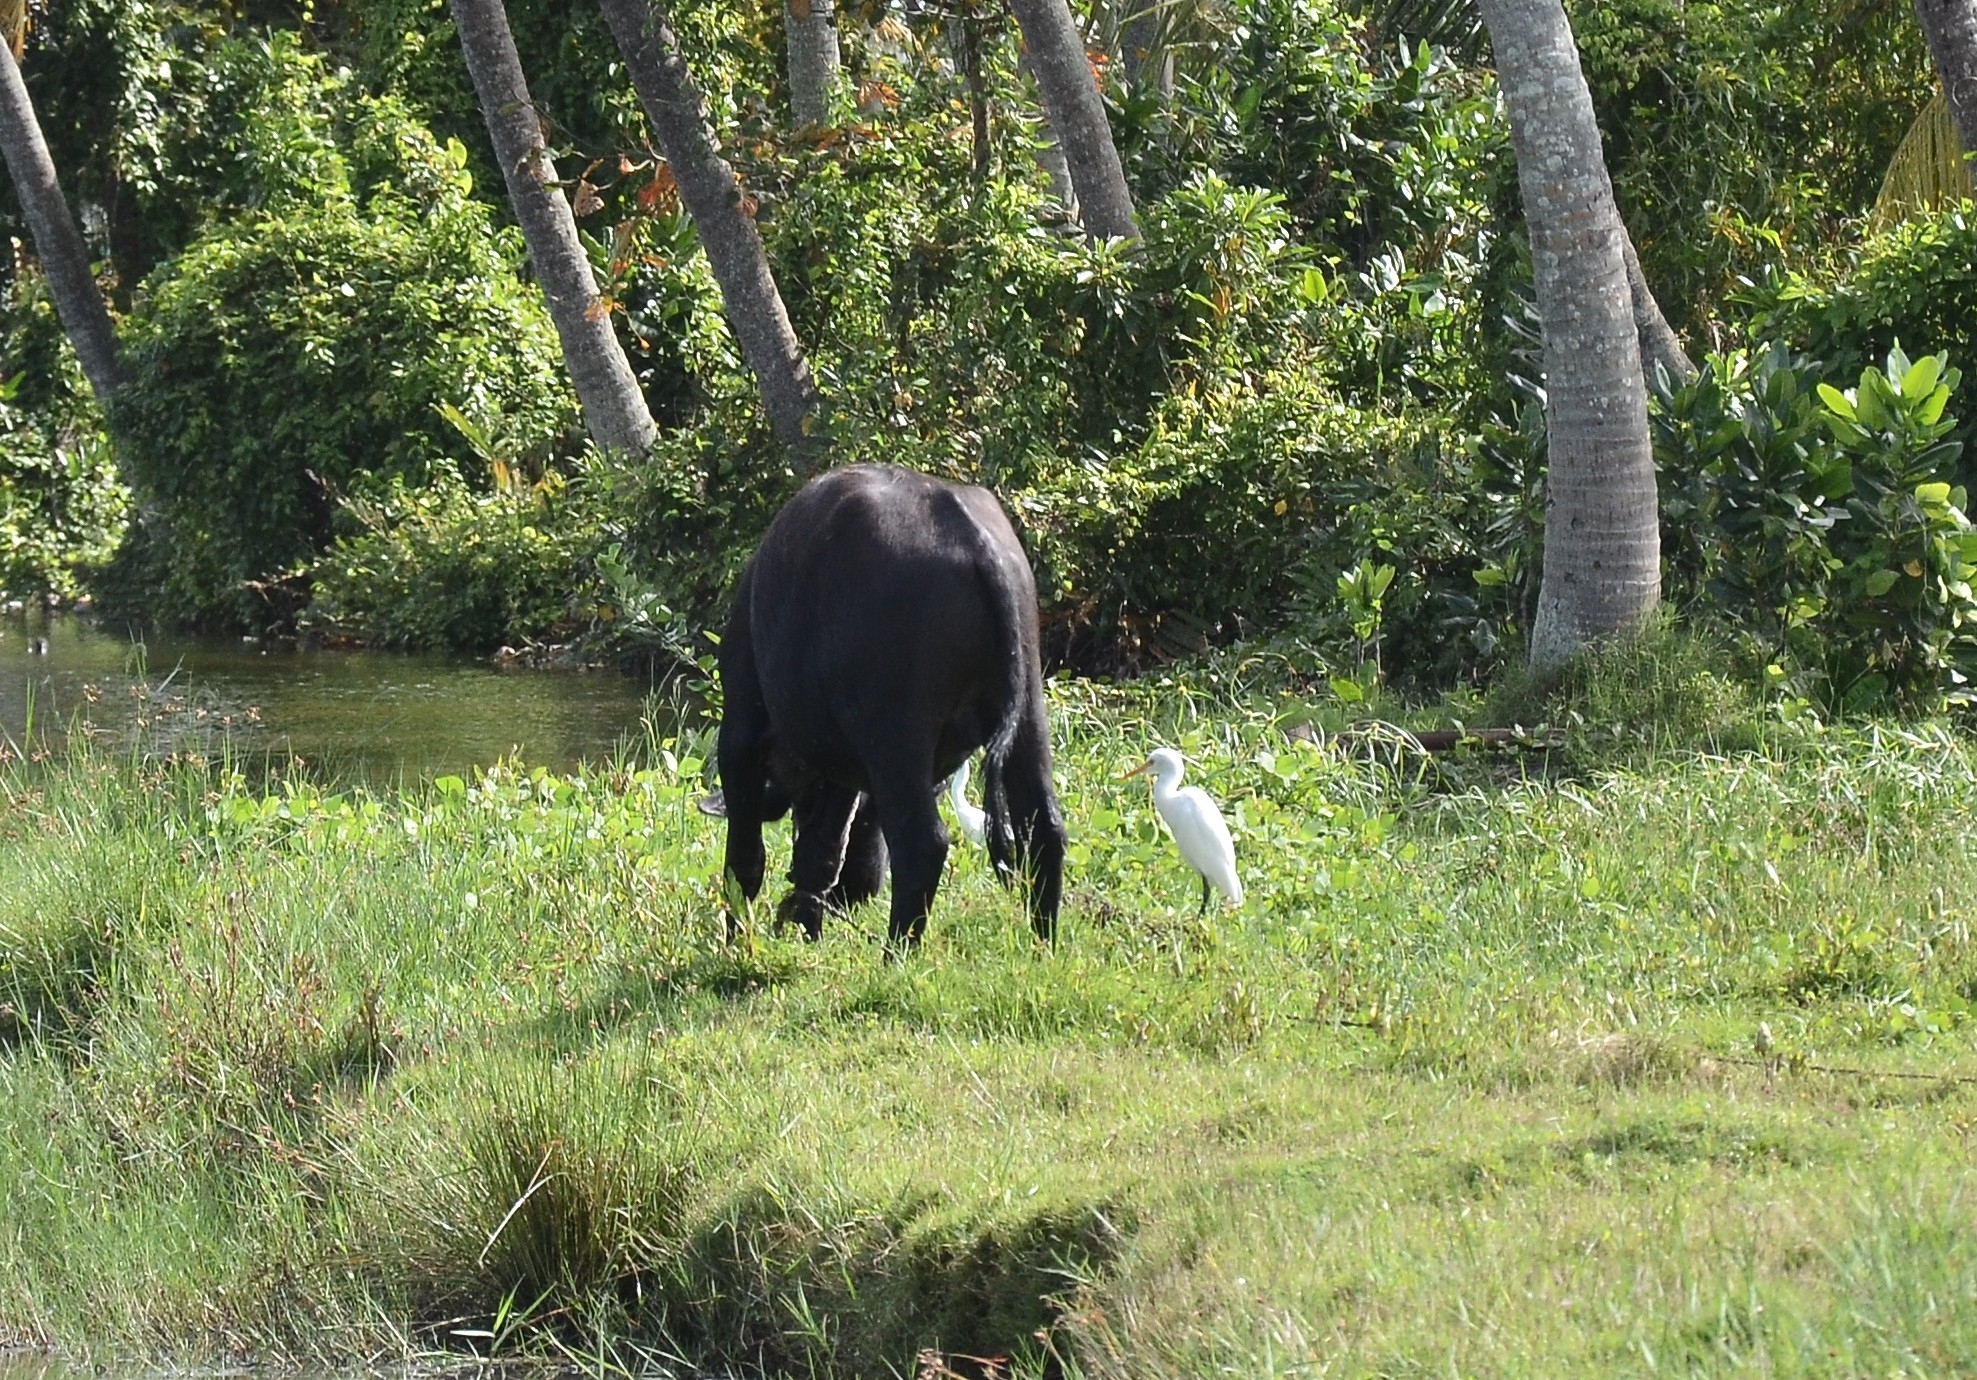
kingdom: Animalia
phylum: Chordata
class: Aves
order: Pelecaniformes
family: Ardeidae
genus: Bubulcus
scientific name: Bubulcus coromandus
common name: Eastern cattle egret
